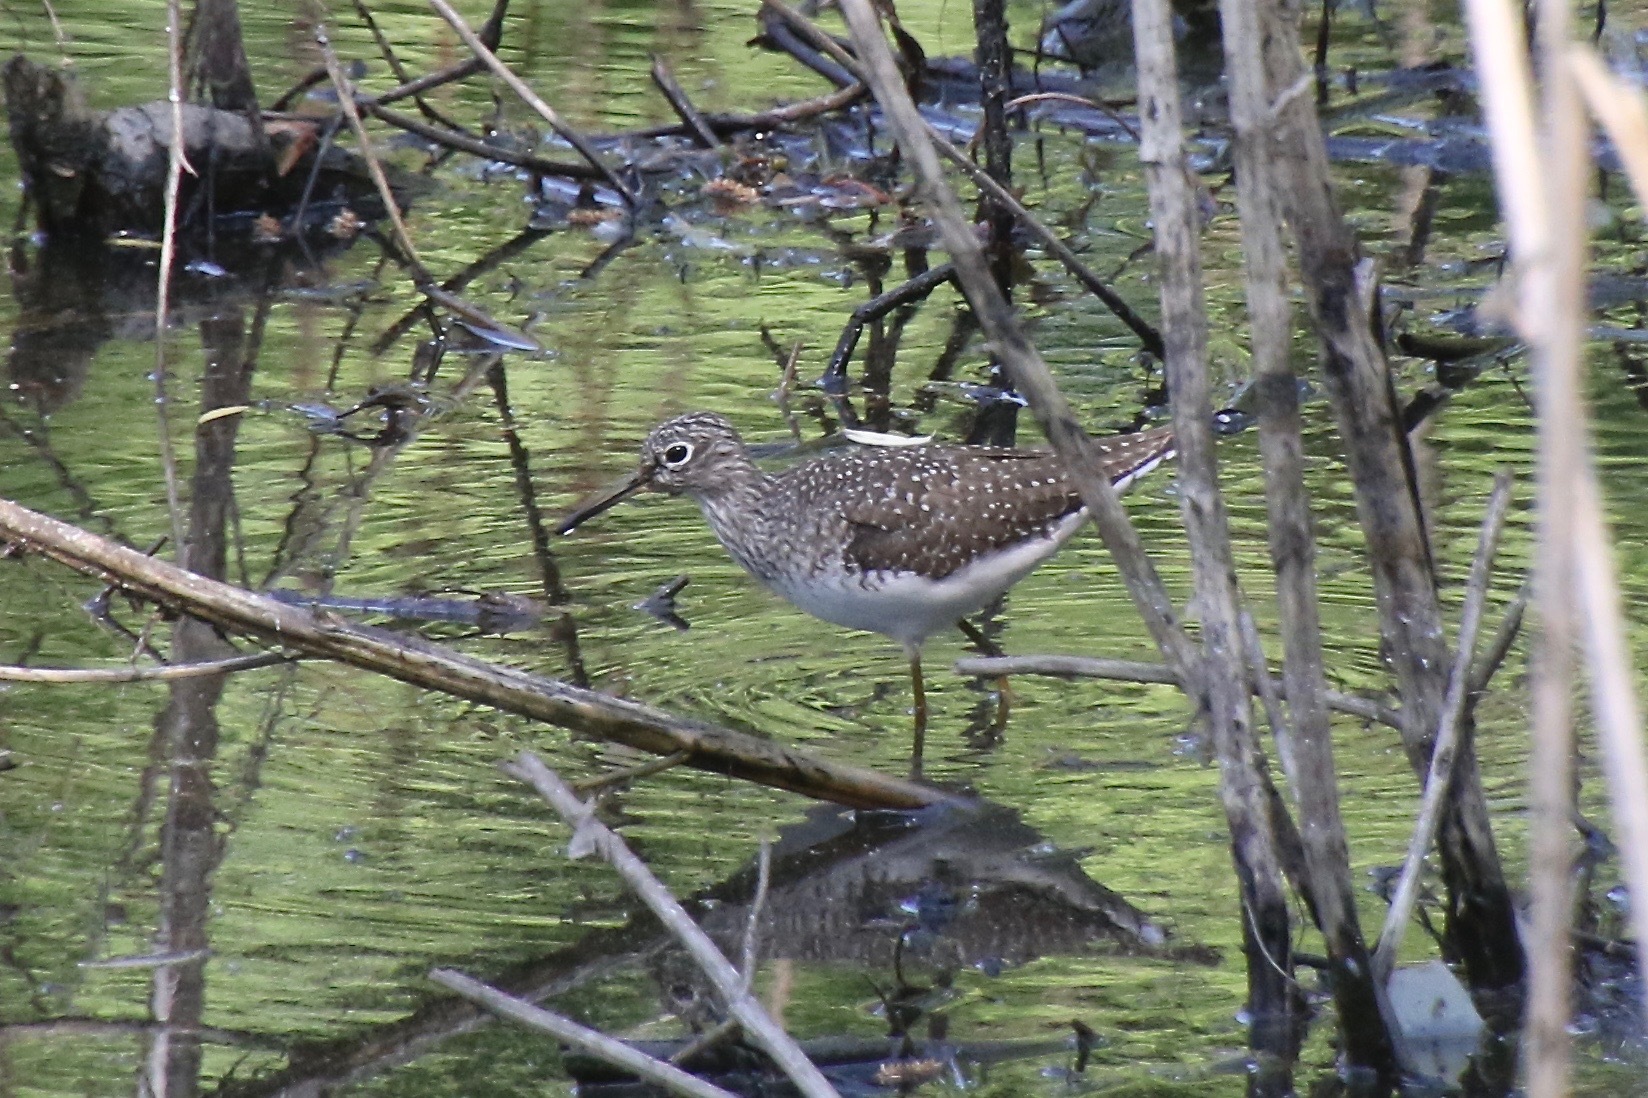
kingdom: Animalia
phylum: Chordata
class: Aves
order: Charadriiformes
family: Scolopacidae
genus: Tringa
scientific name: Tringa solitaria
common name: Solitary sandpiper
